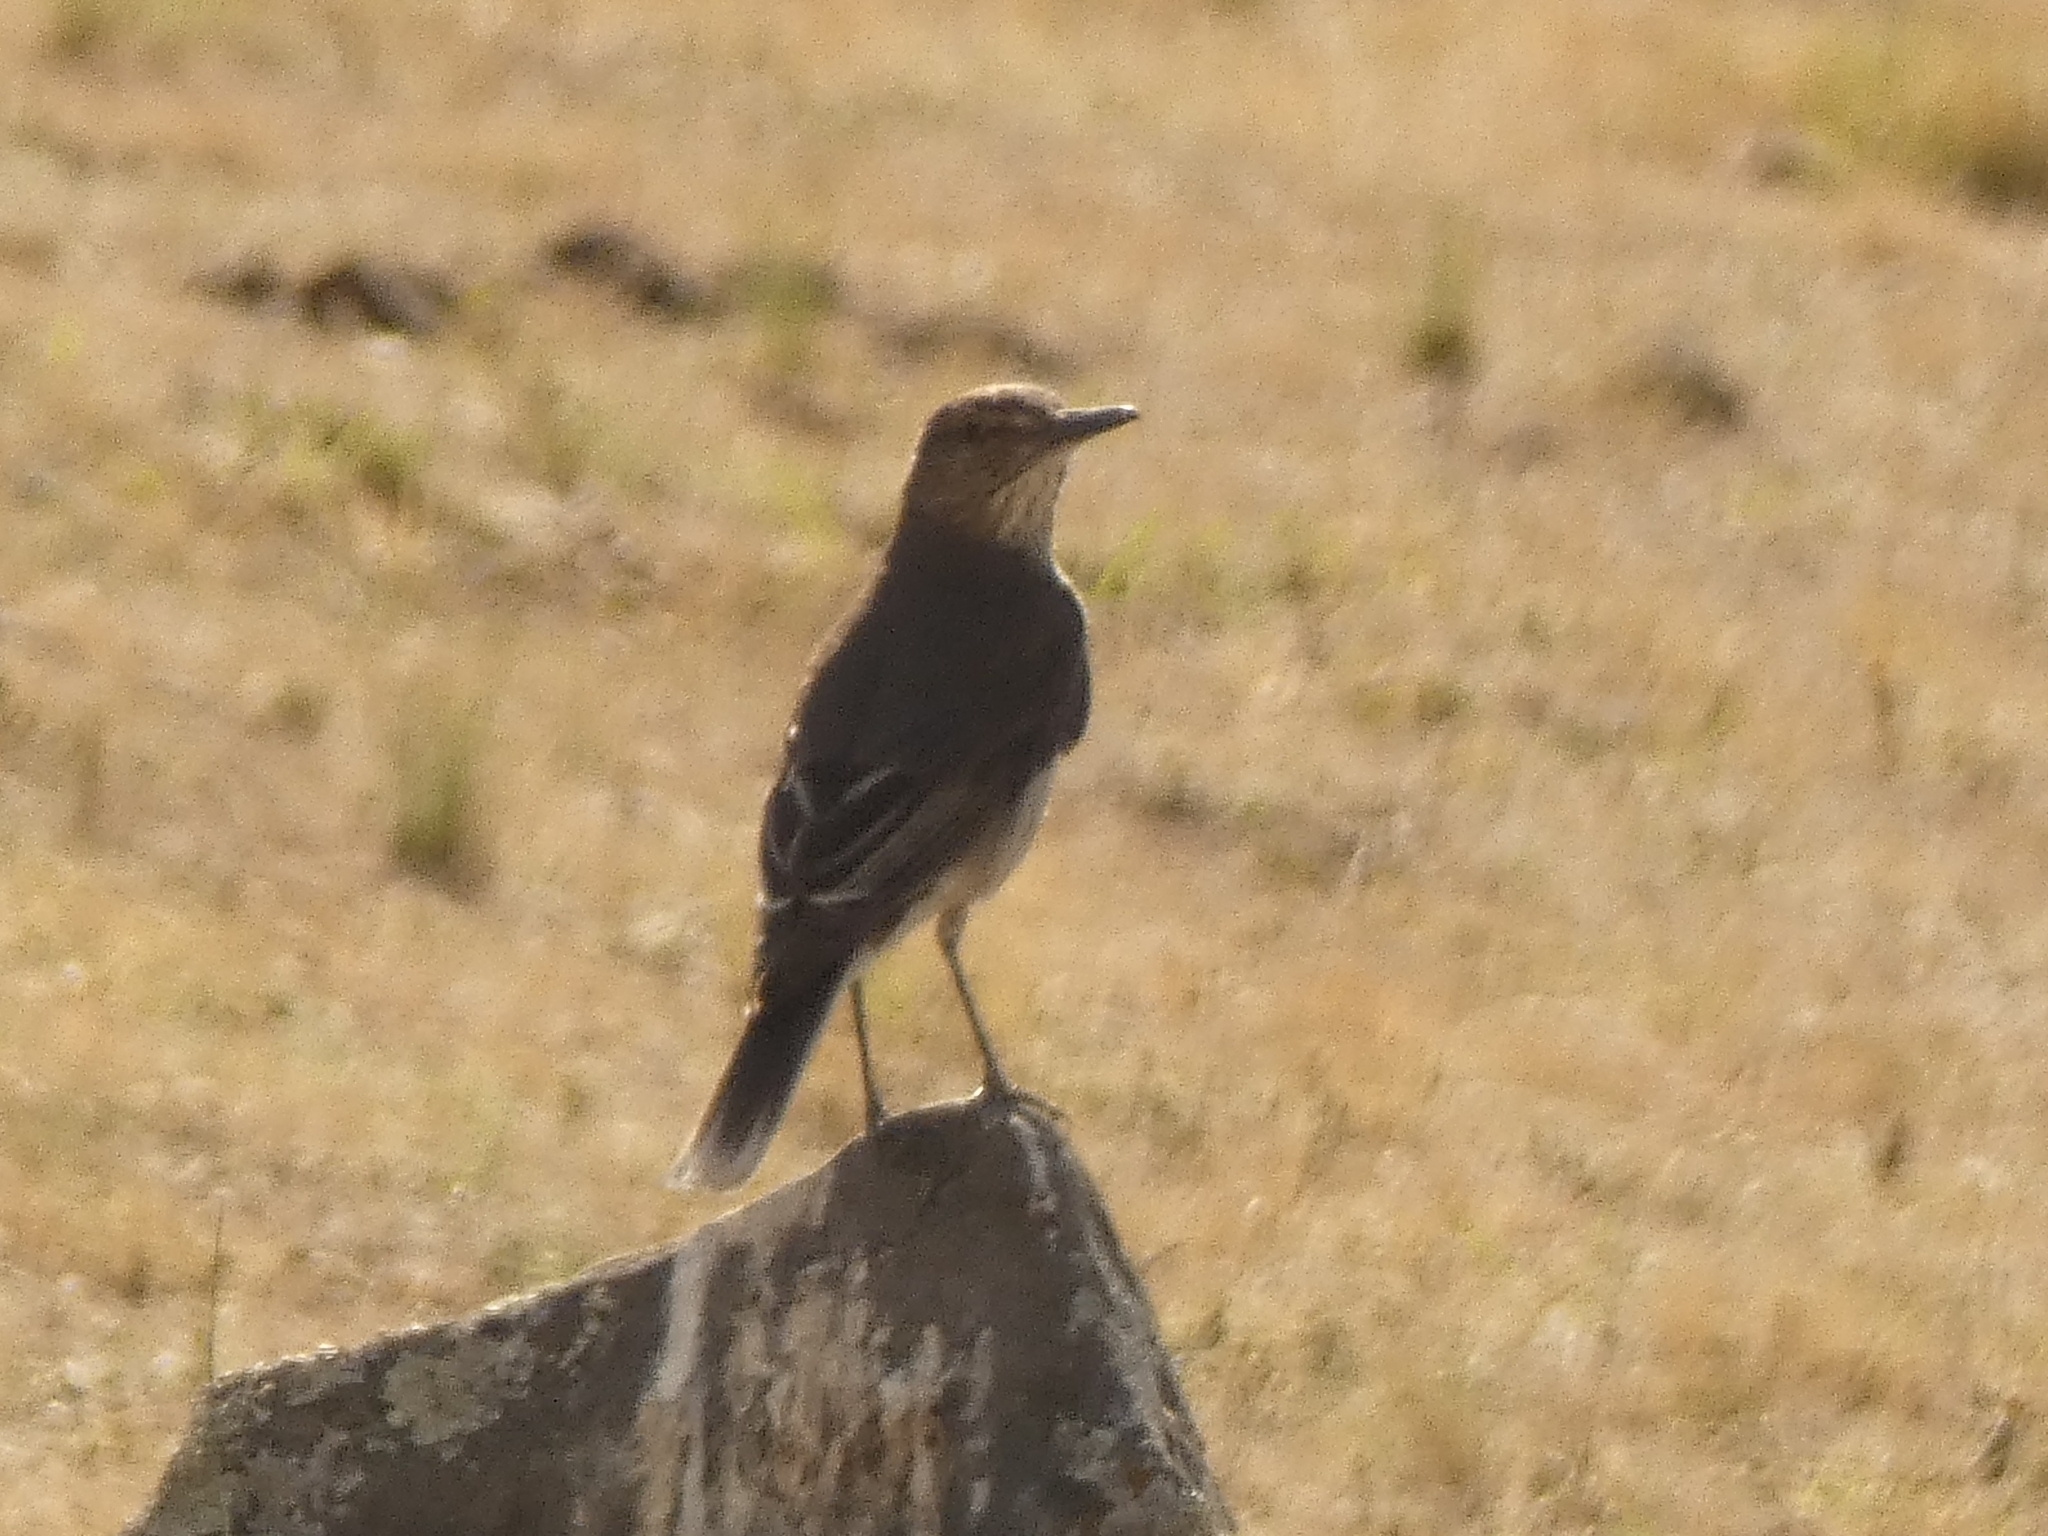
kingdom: Animalia
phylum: Chordata
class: Aves
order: Passeriformes
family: Tyrannidae
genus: Agriornis
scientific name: Agriornis montanus
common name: Black-billed shrike-tyrant
